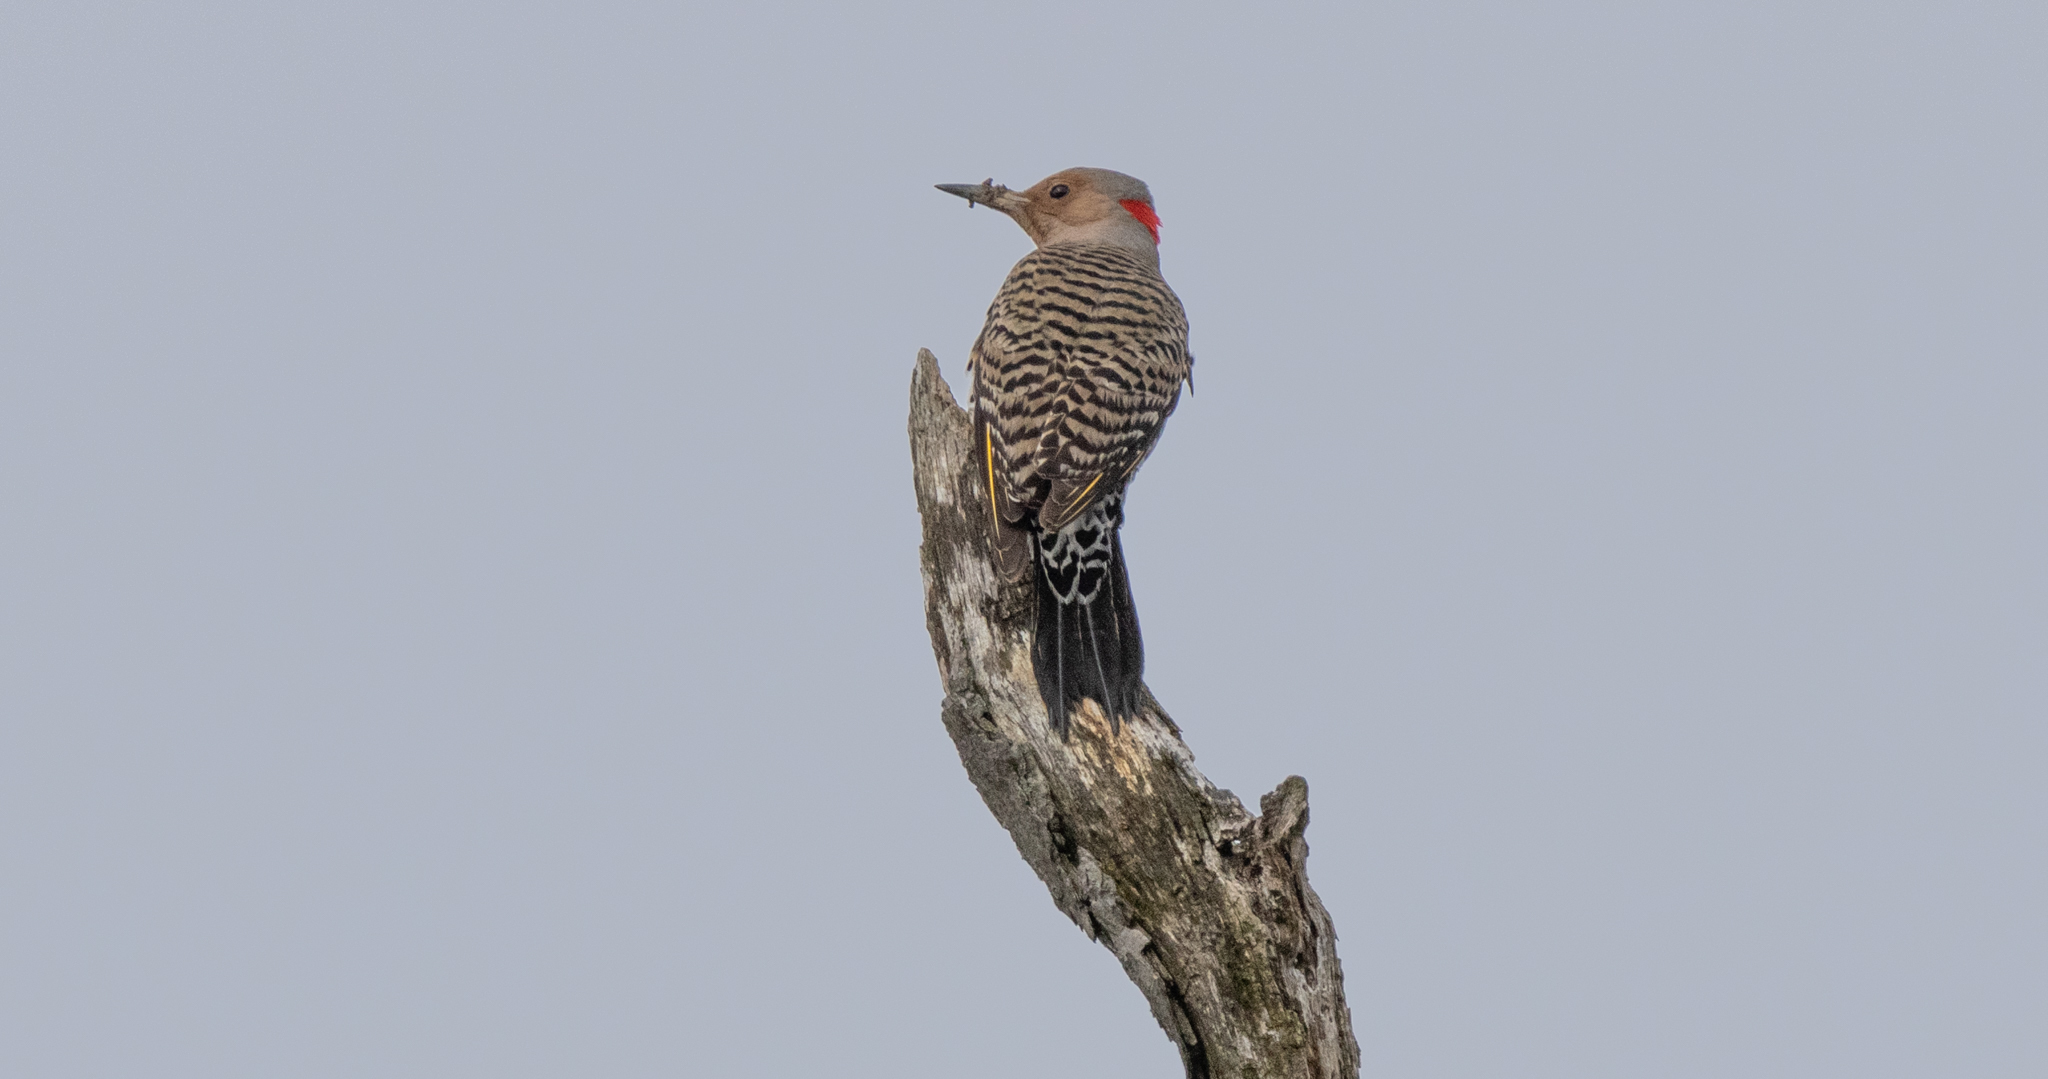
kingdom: Animalia
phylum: Chordata
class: Aves
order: Piciformes
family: Picidae
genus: Colaptes
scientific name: Colaptes auratus
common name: Northern flicker
